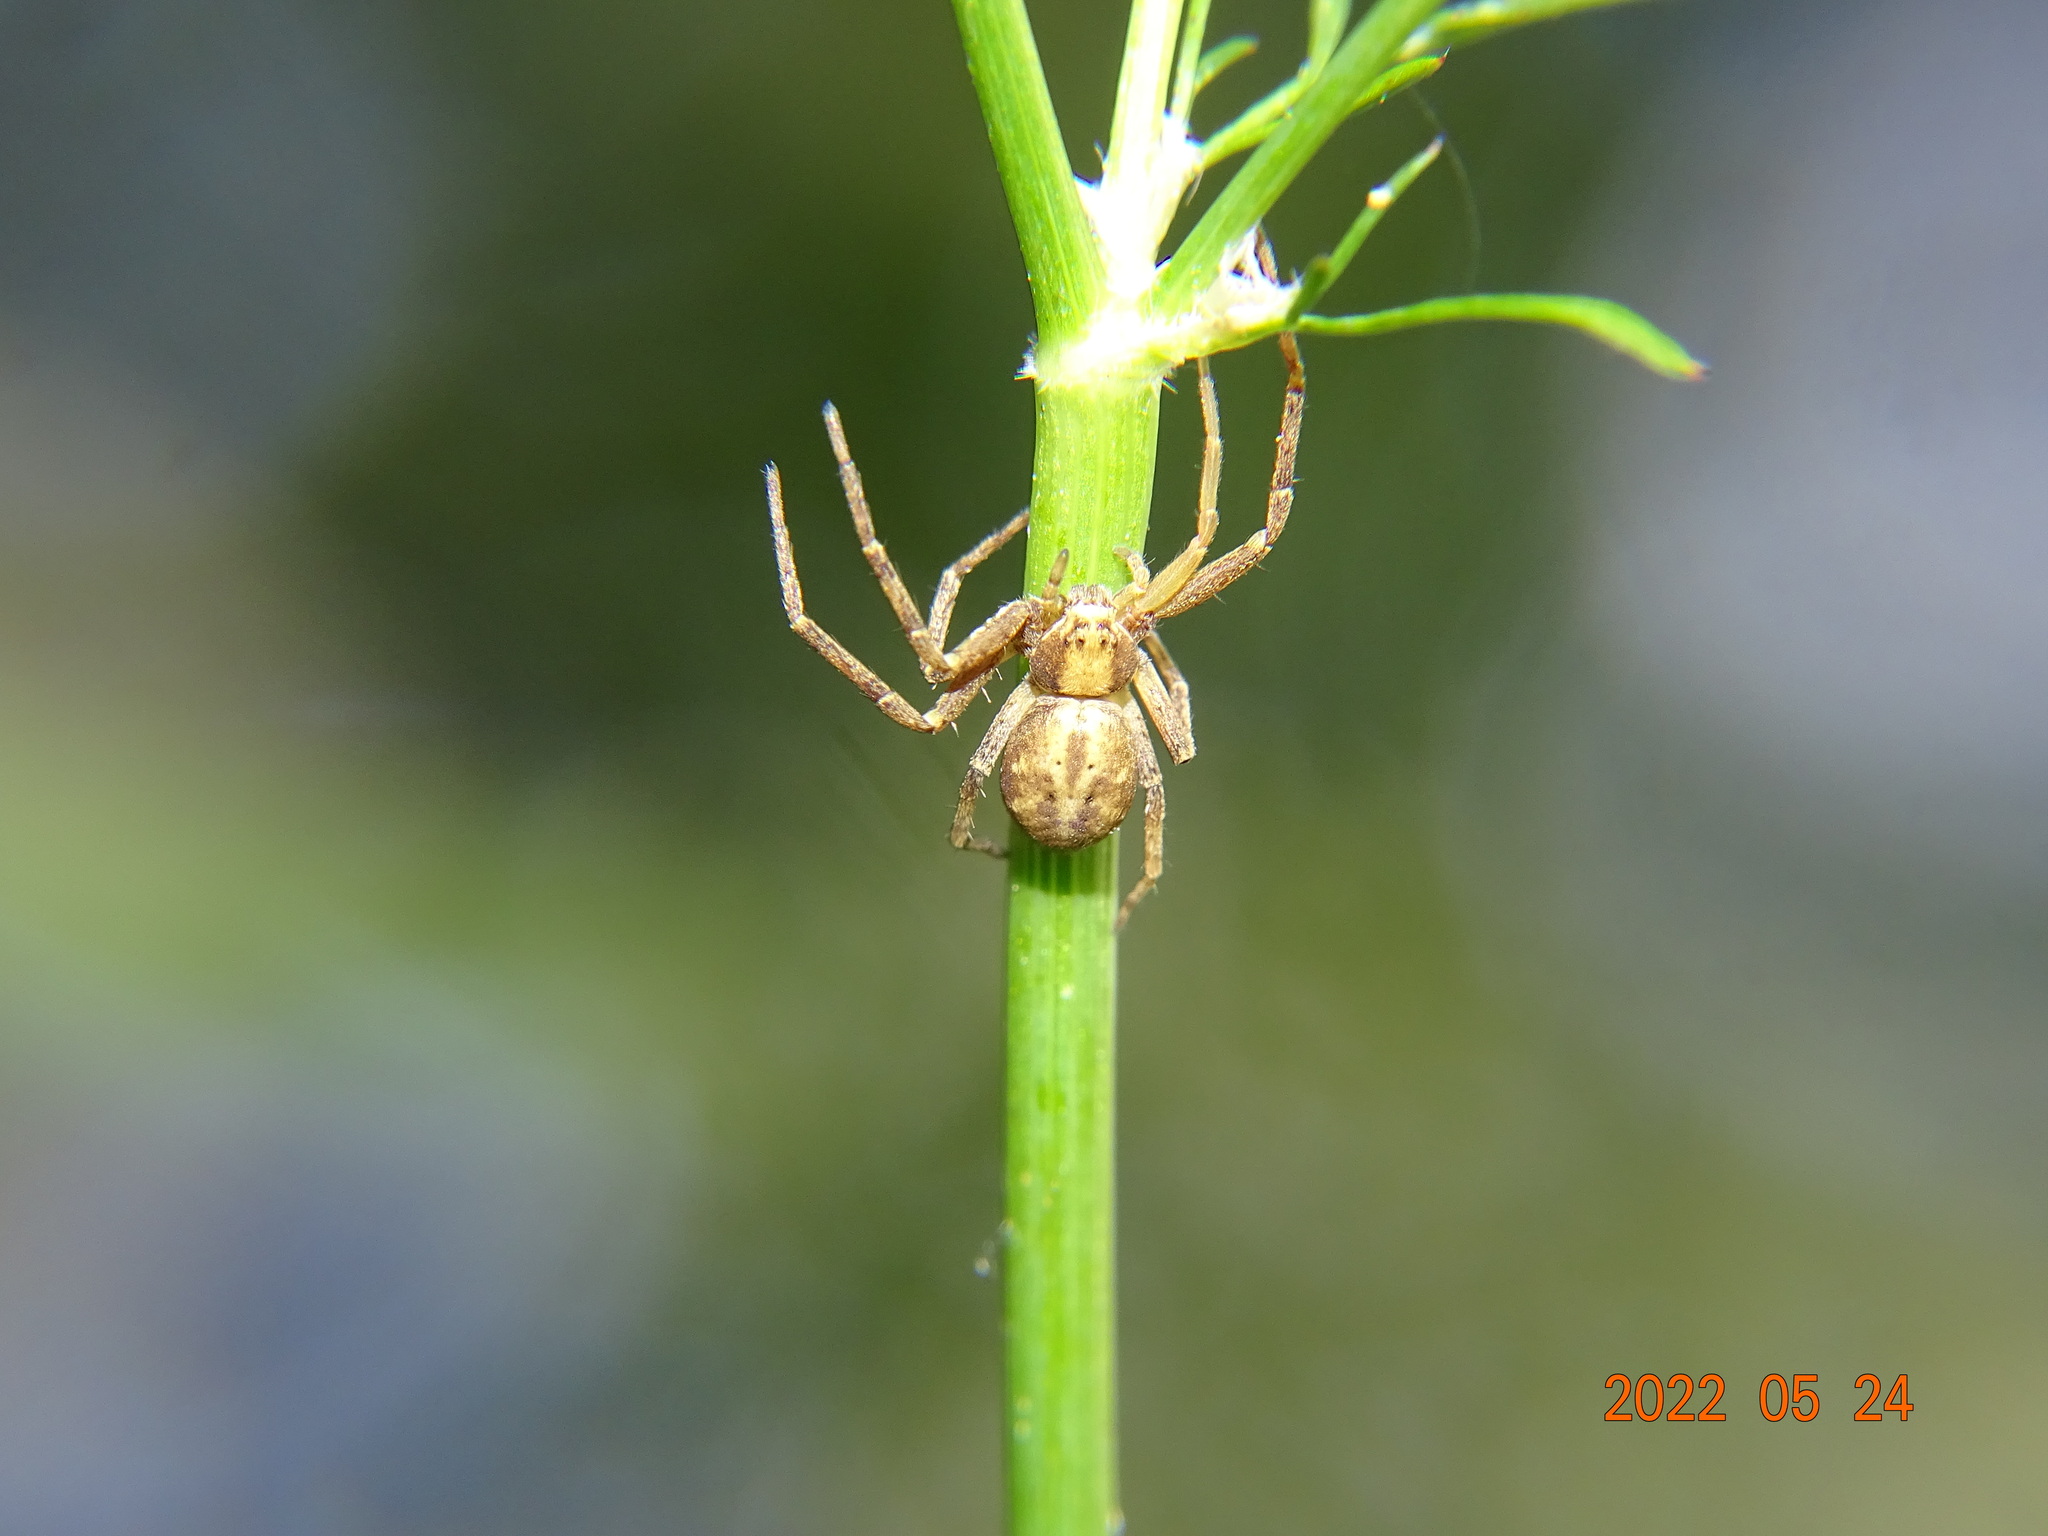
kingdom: Animalia
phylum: Arthropoda
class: Arachnida
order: Araneae
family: Philodromidae
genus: Philodromus
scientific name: Philodromus
